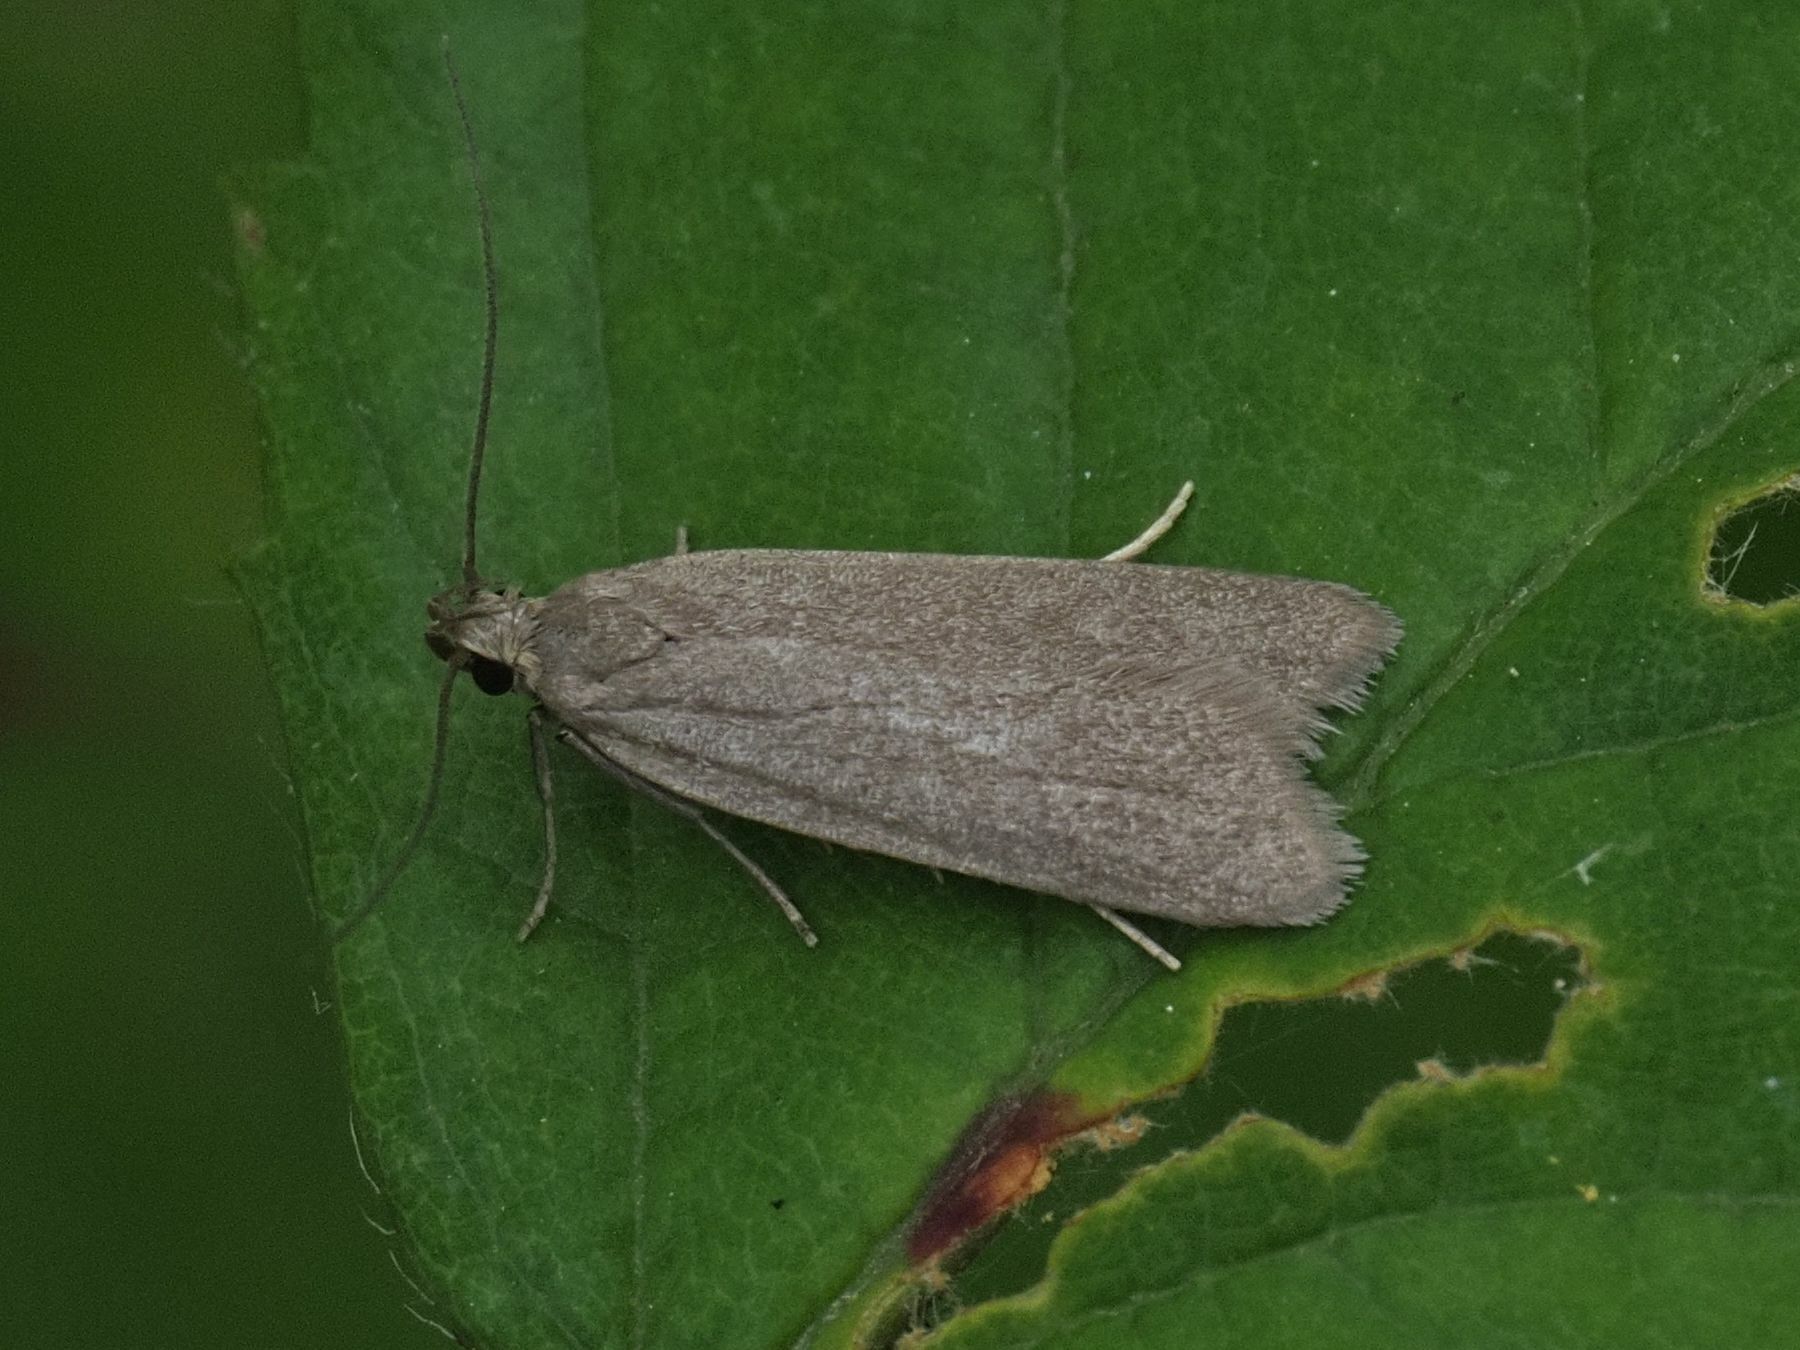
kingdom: Animalia
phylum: Arthropoda
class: Insecta
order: Lepidoptera
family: Gelechiidae
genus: Acompsia
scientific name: Acompsia cinerella
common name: Ash-coloured sober
